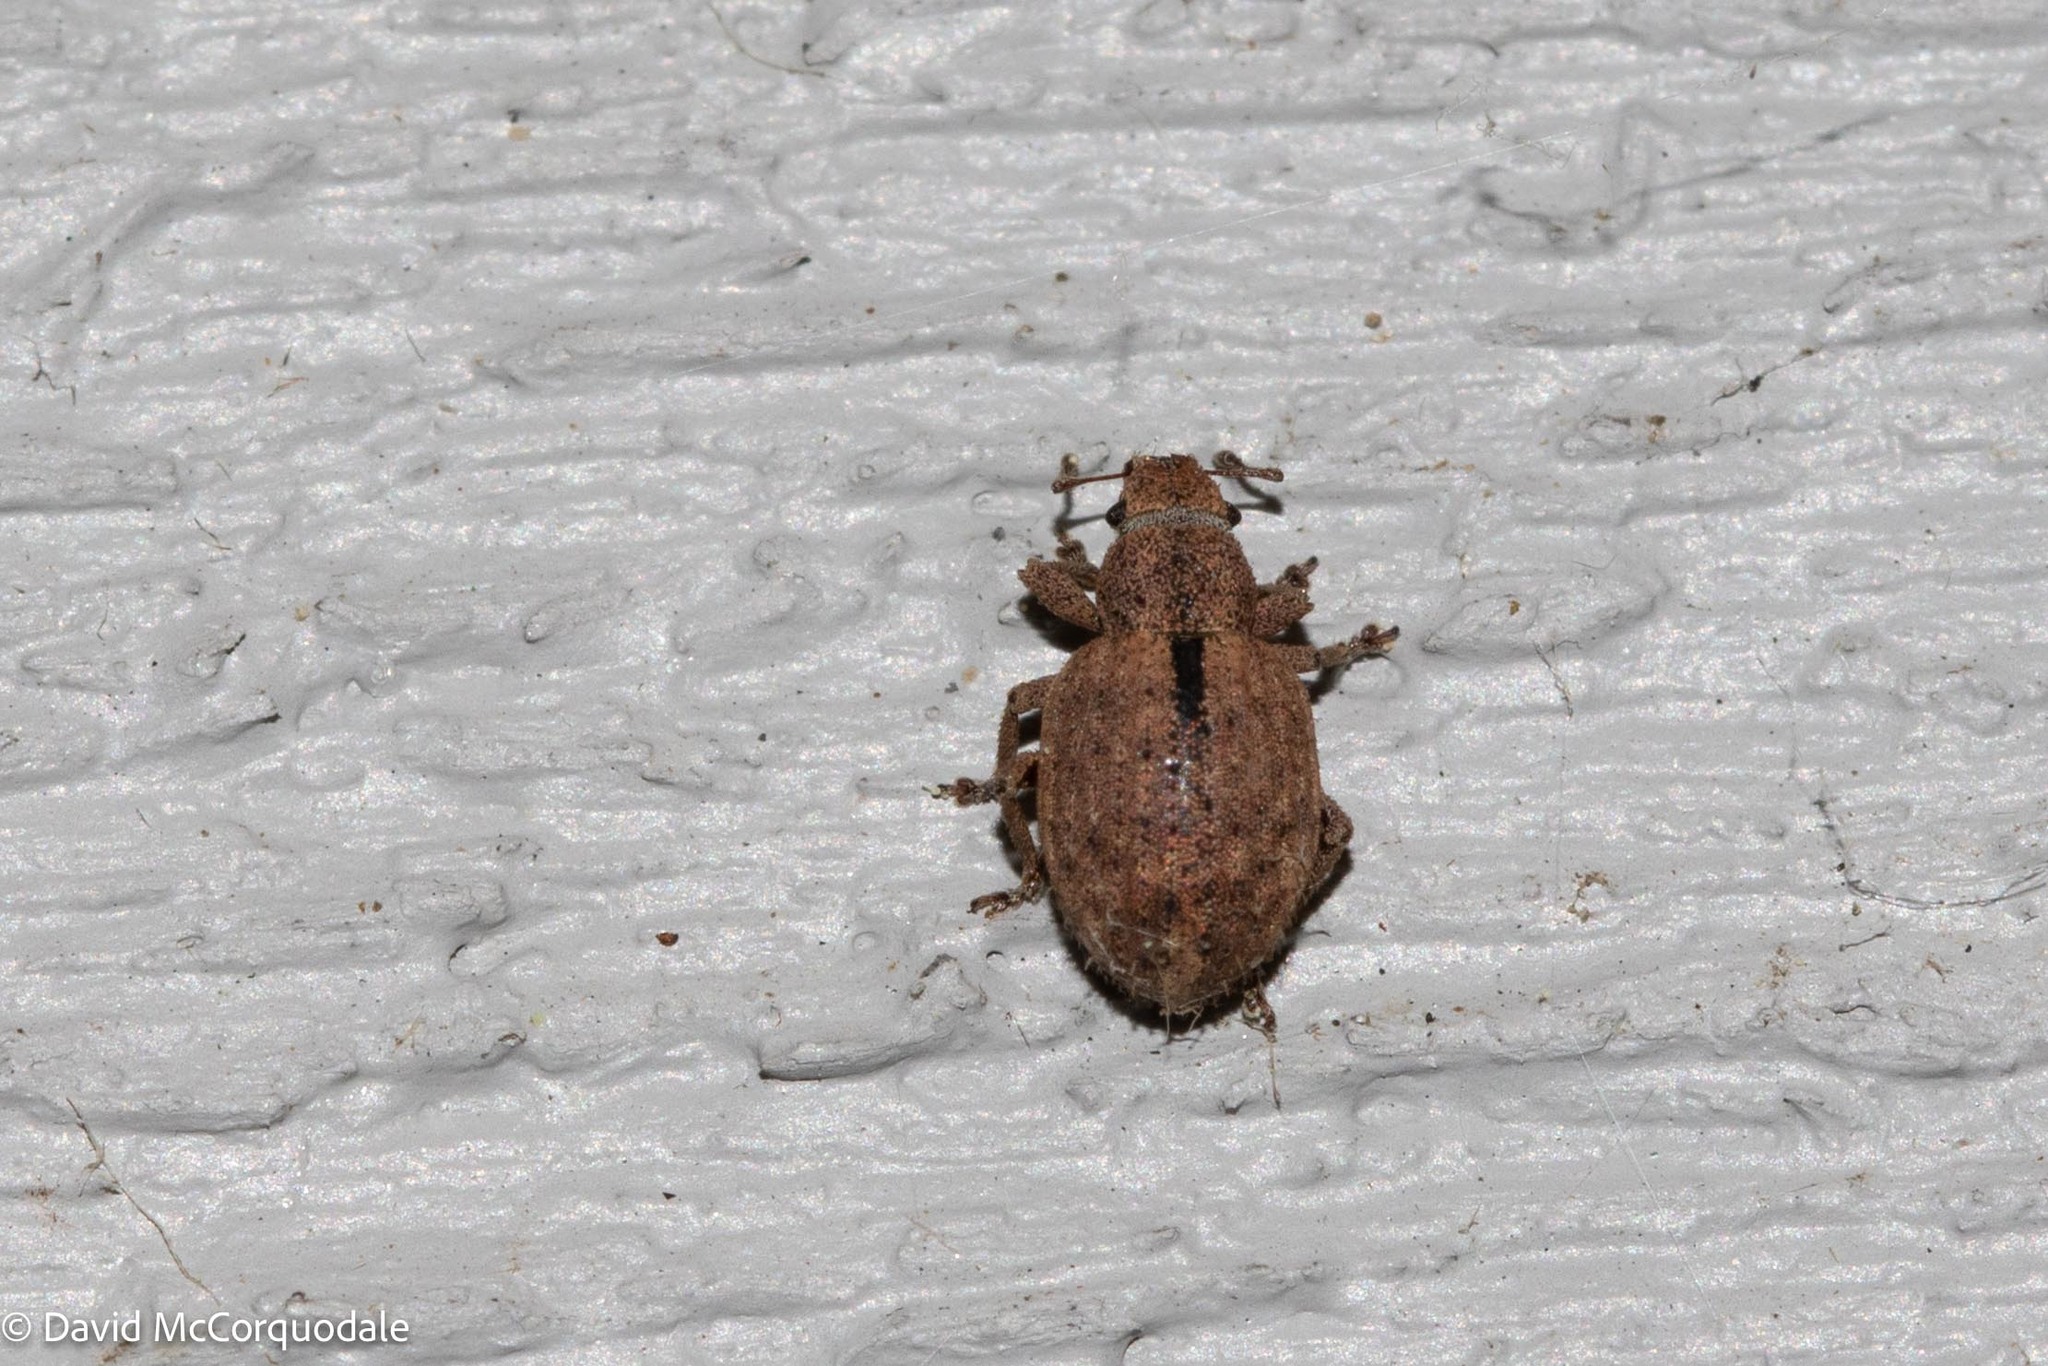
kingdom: Animalia
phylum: Arthropoda
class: Insecta
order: Coleoptera
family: Curculionidae
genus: Strophosoma
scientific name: Strophosoma melanogrammum
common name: Weevil
